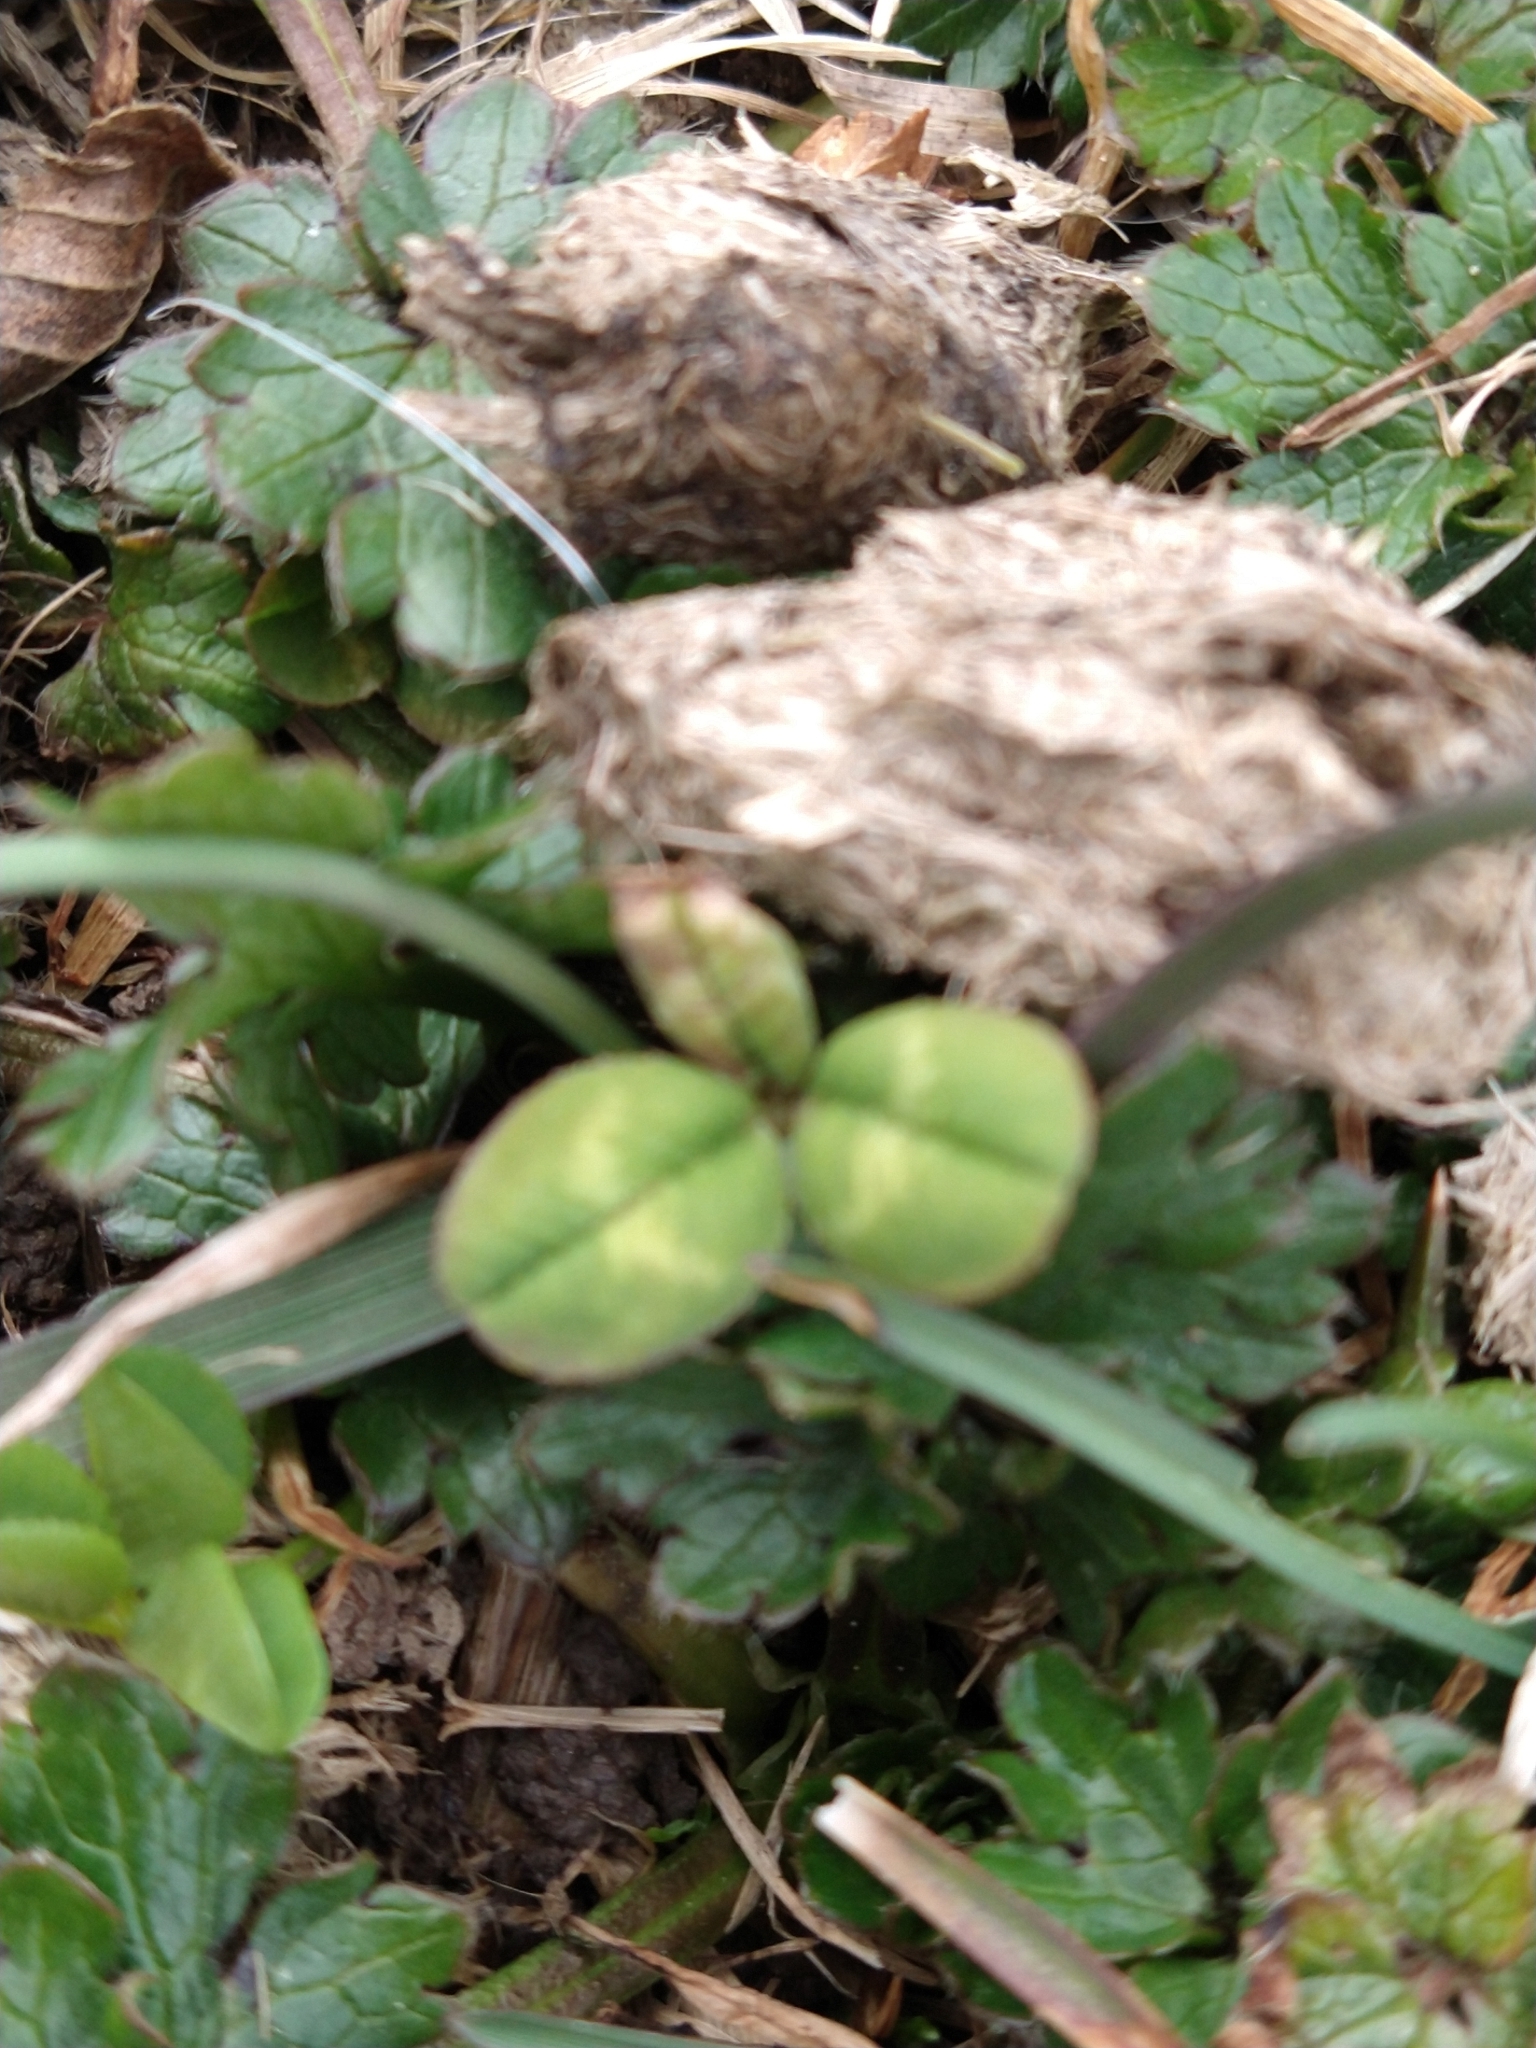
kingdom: Plantae
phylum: Tracheophyta
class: Magnoliopsida
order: Fabales
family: Fabaceae
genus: Trifolium
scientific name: Trifolium repens
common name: White clover
